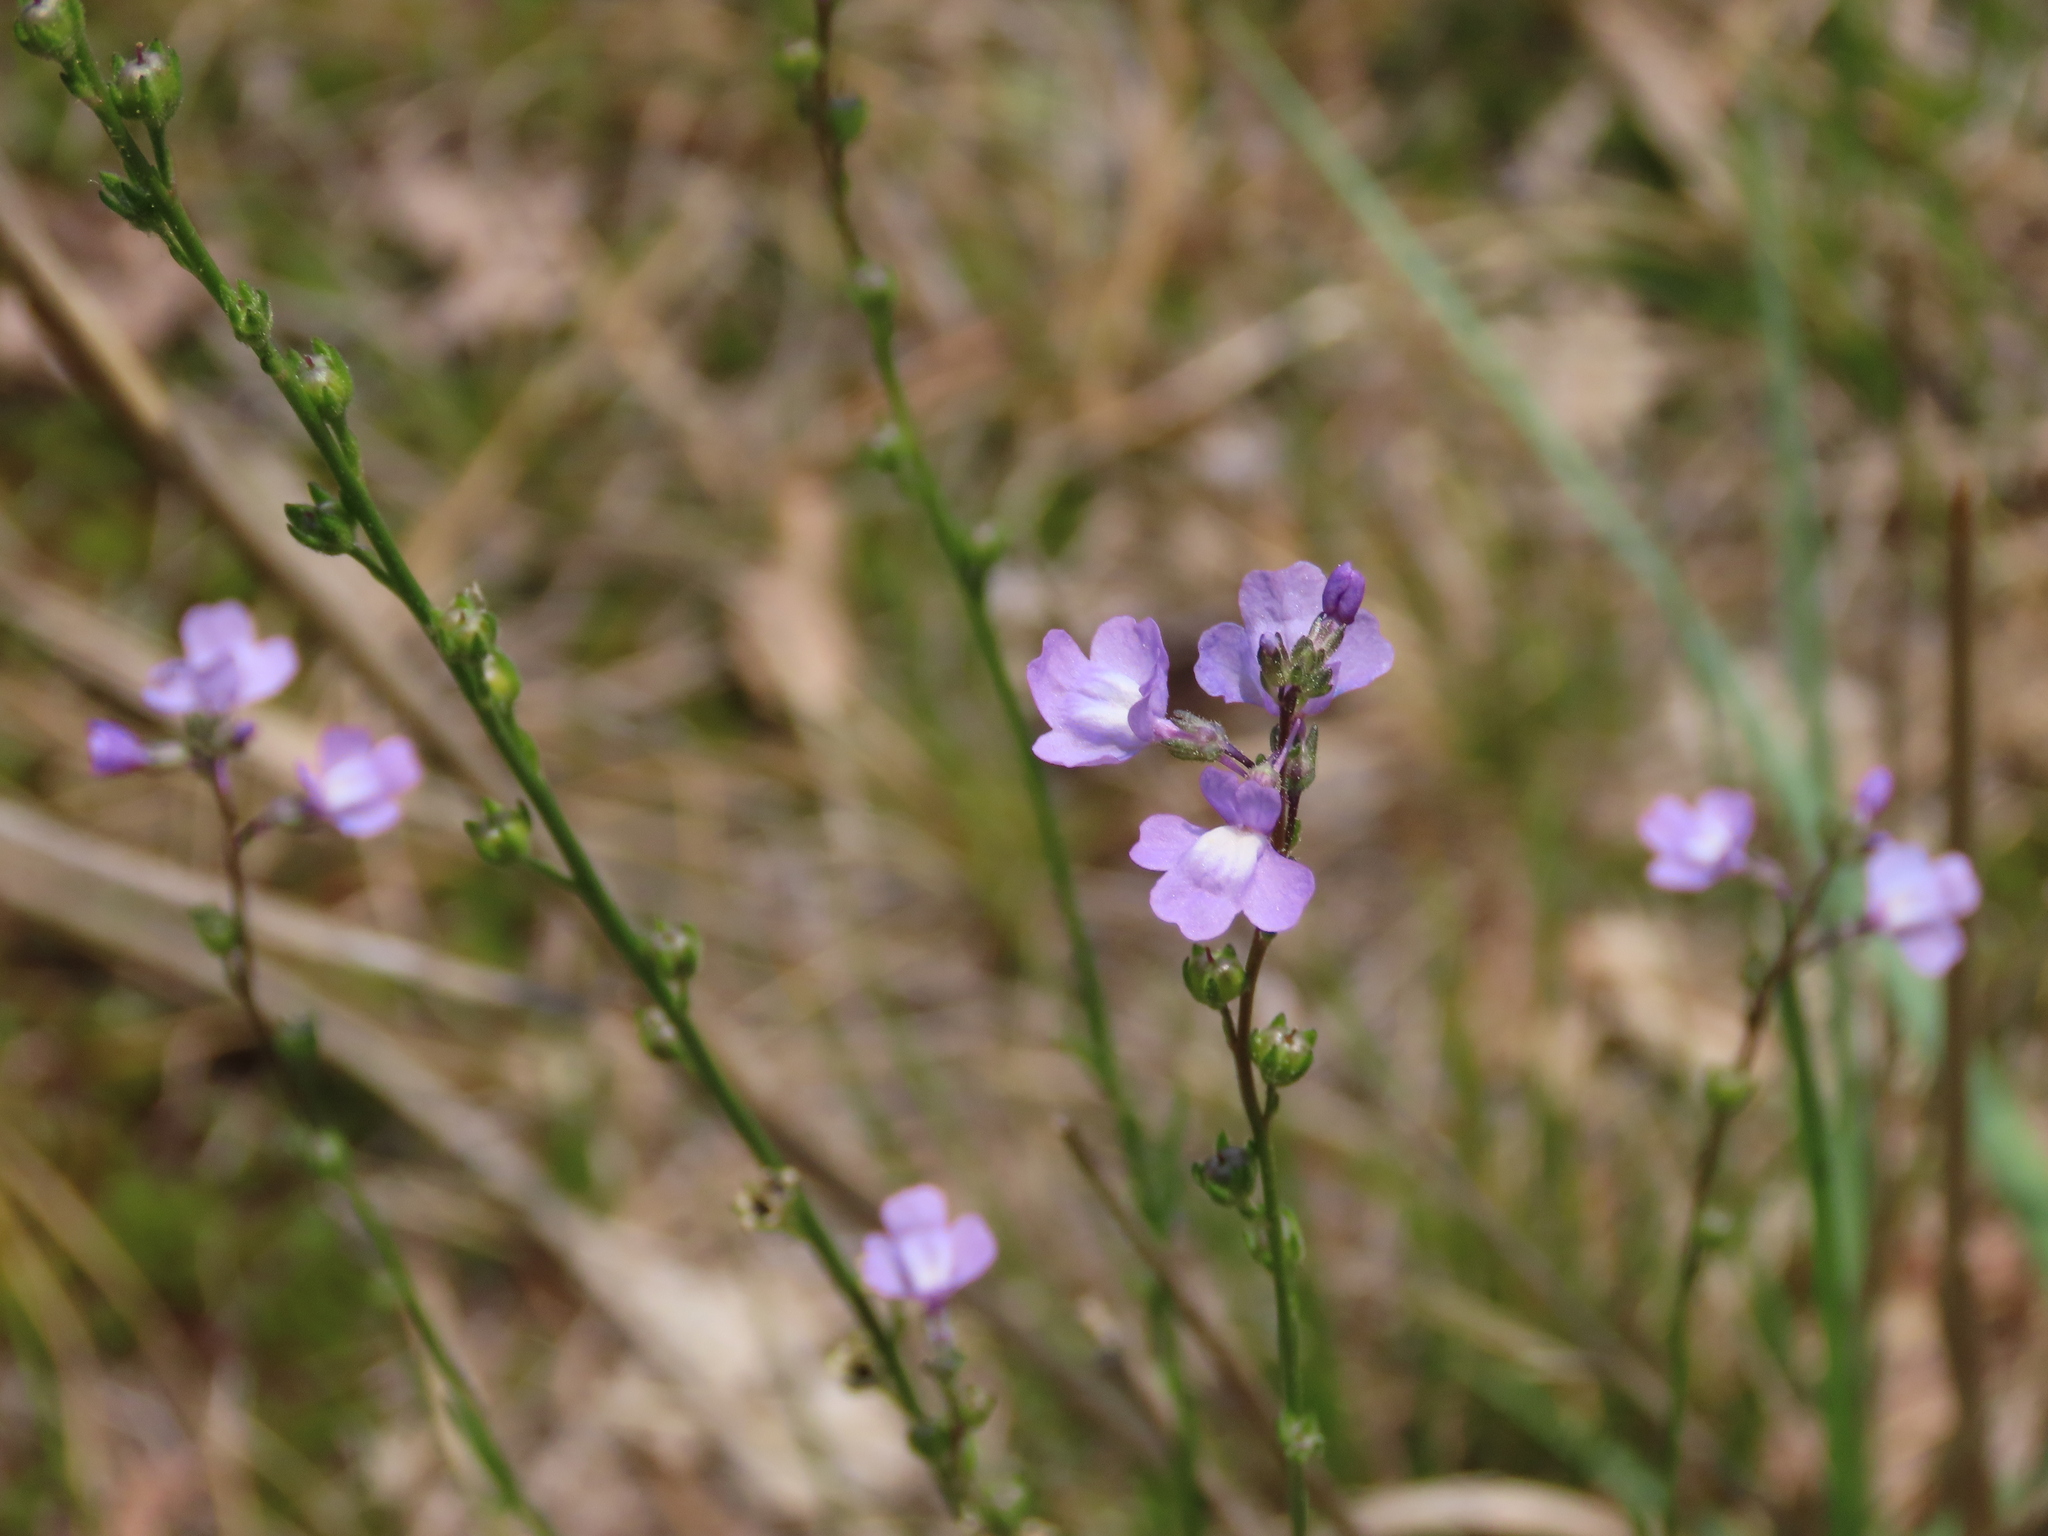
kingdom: Plantae
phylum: Tracheophyta
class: Magnoliopsida
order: Lamiales
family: Plantaginaceae
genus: Nuttallanthus
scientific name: Nuttallanthus canadensis
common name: Blue toadflax
